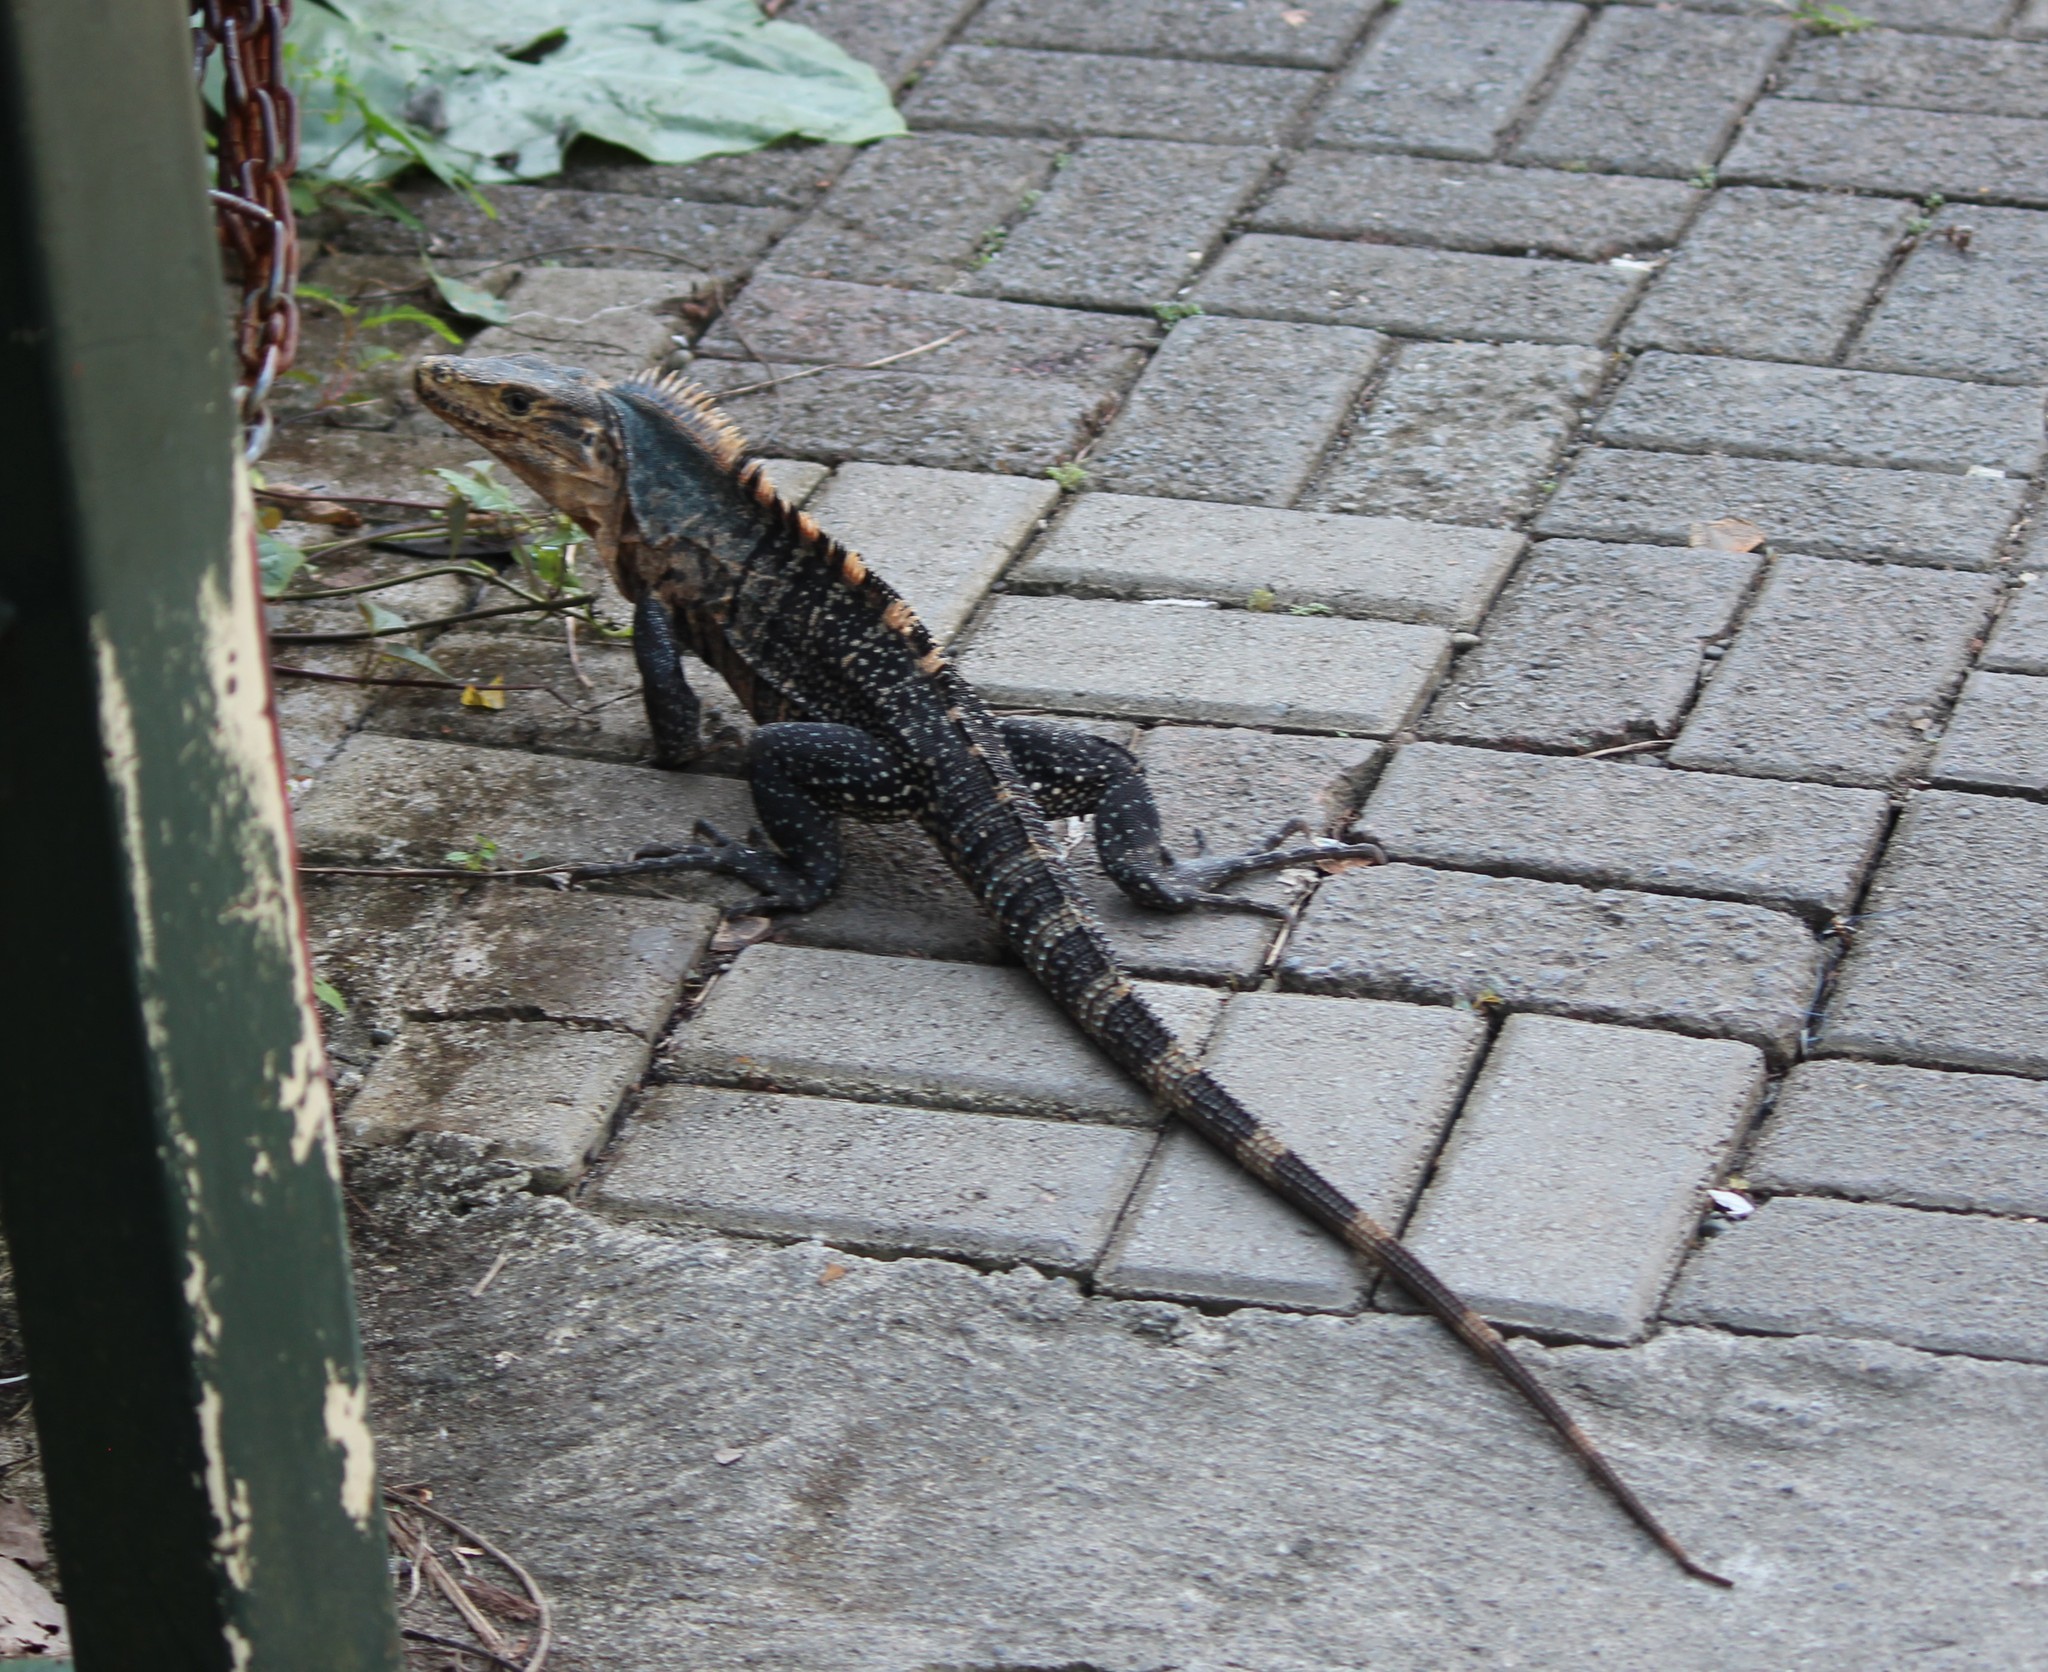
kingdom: Animalia
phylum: Chordata
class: Squamata
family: Iguanidae
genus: Ctenosaura
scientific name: Ctenosaura similis
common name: Black spiny-tailed iguana
